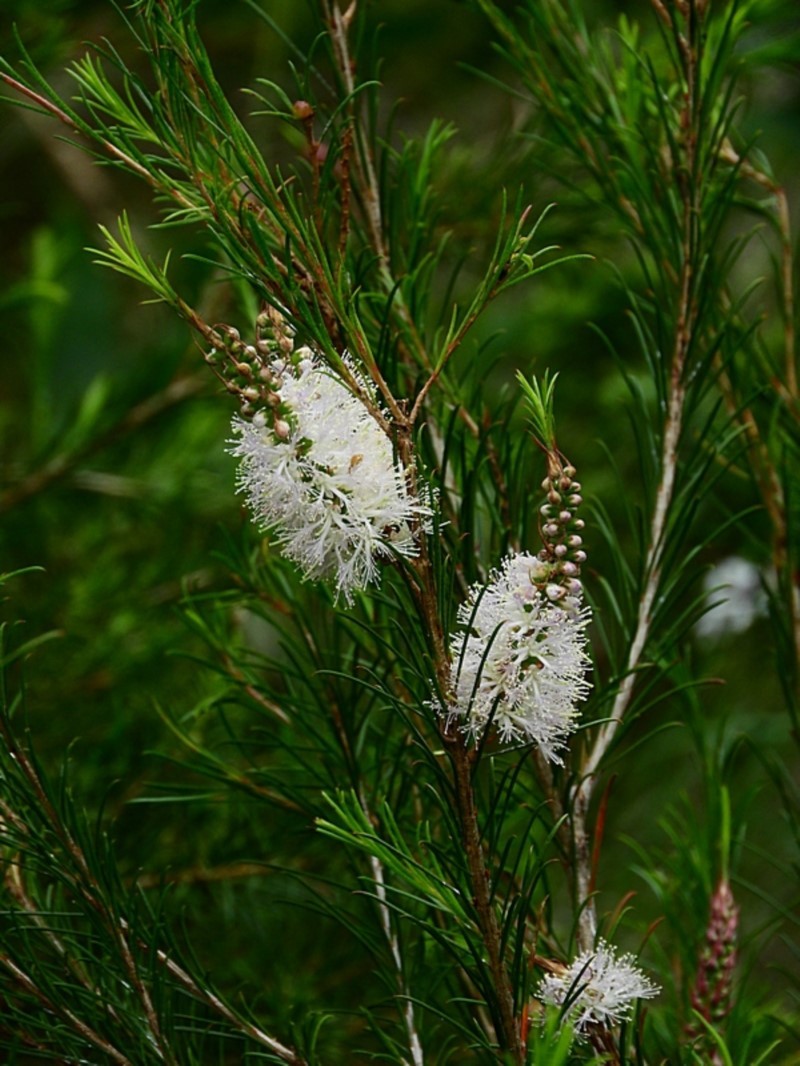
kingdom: Plantae
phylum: Tracheophyta
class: Magnoliopsida
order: Myrtales
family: Myrtaceae
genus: Melaleuca
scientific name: Melaleuca armillaris
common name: Bracelet honey myrtle
